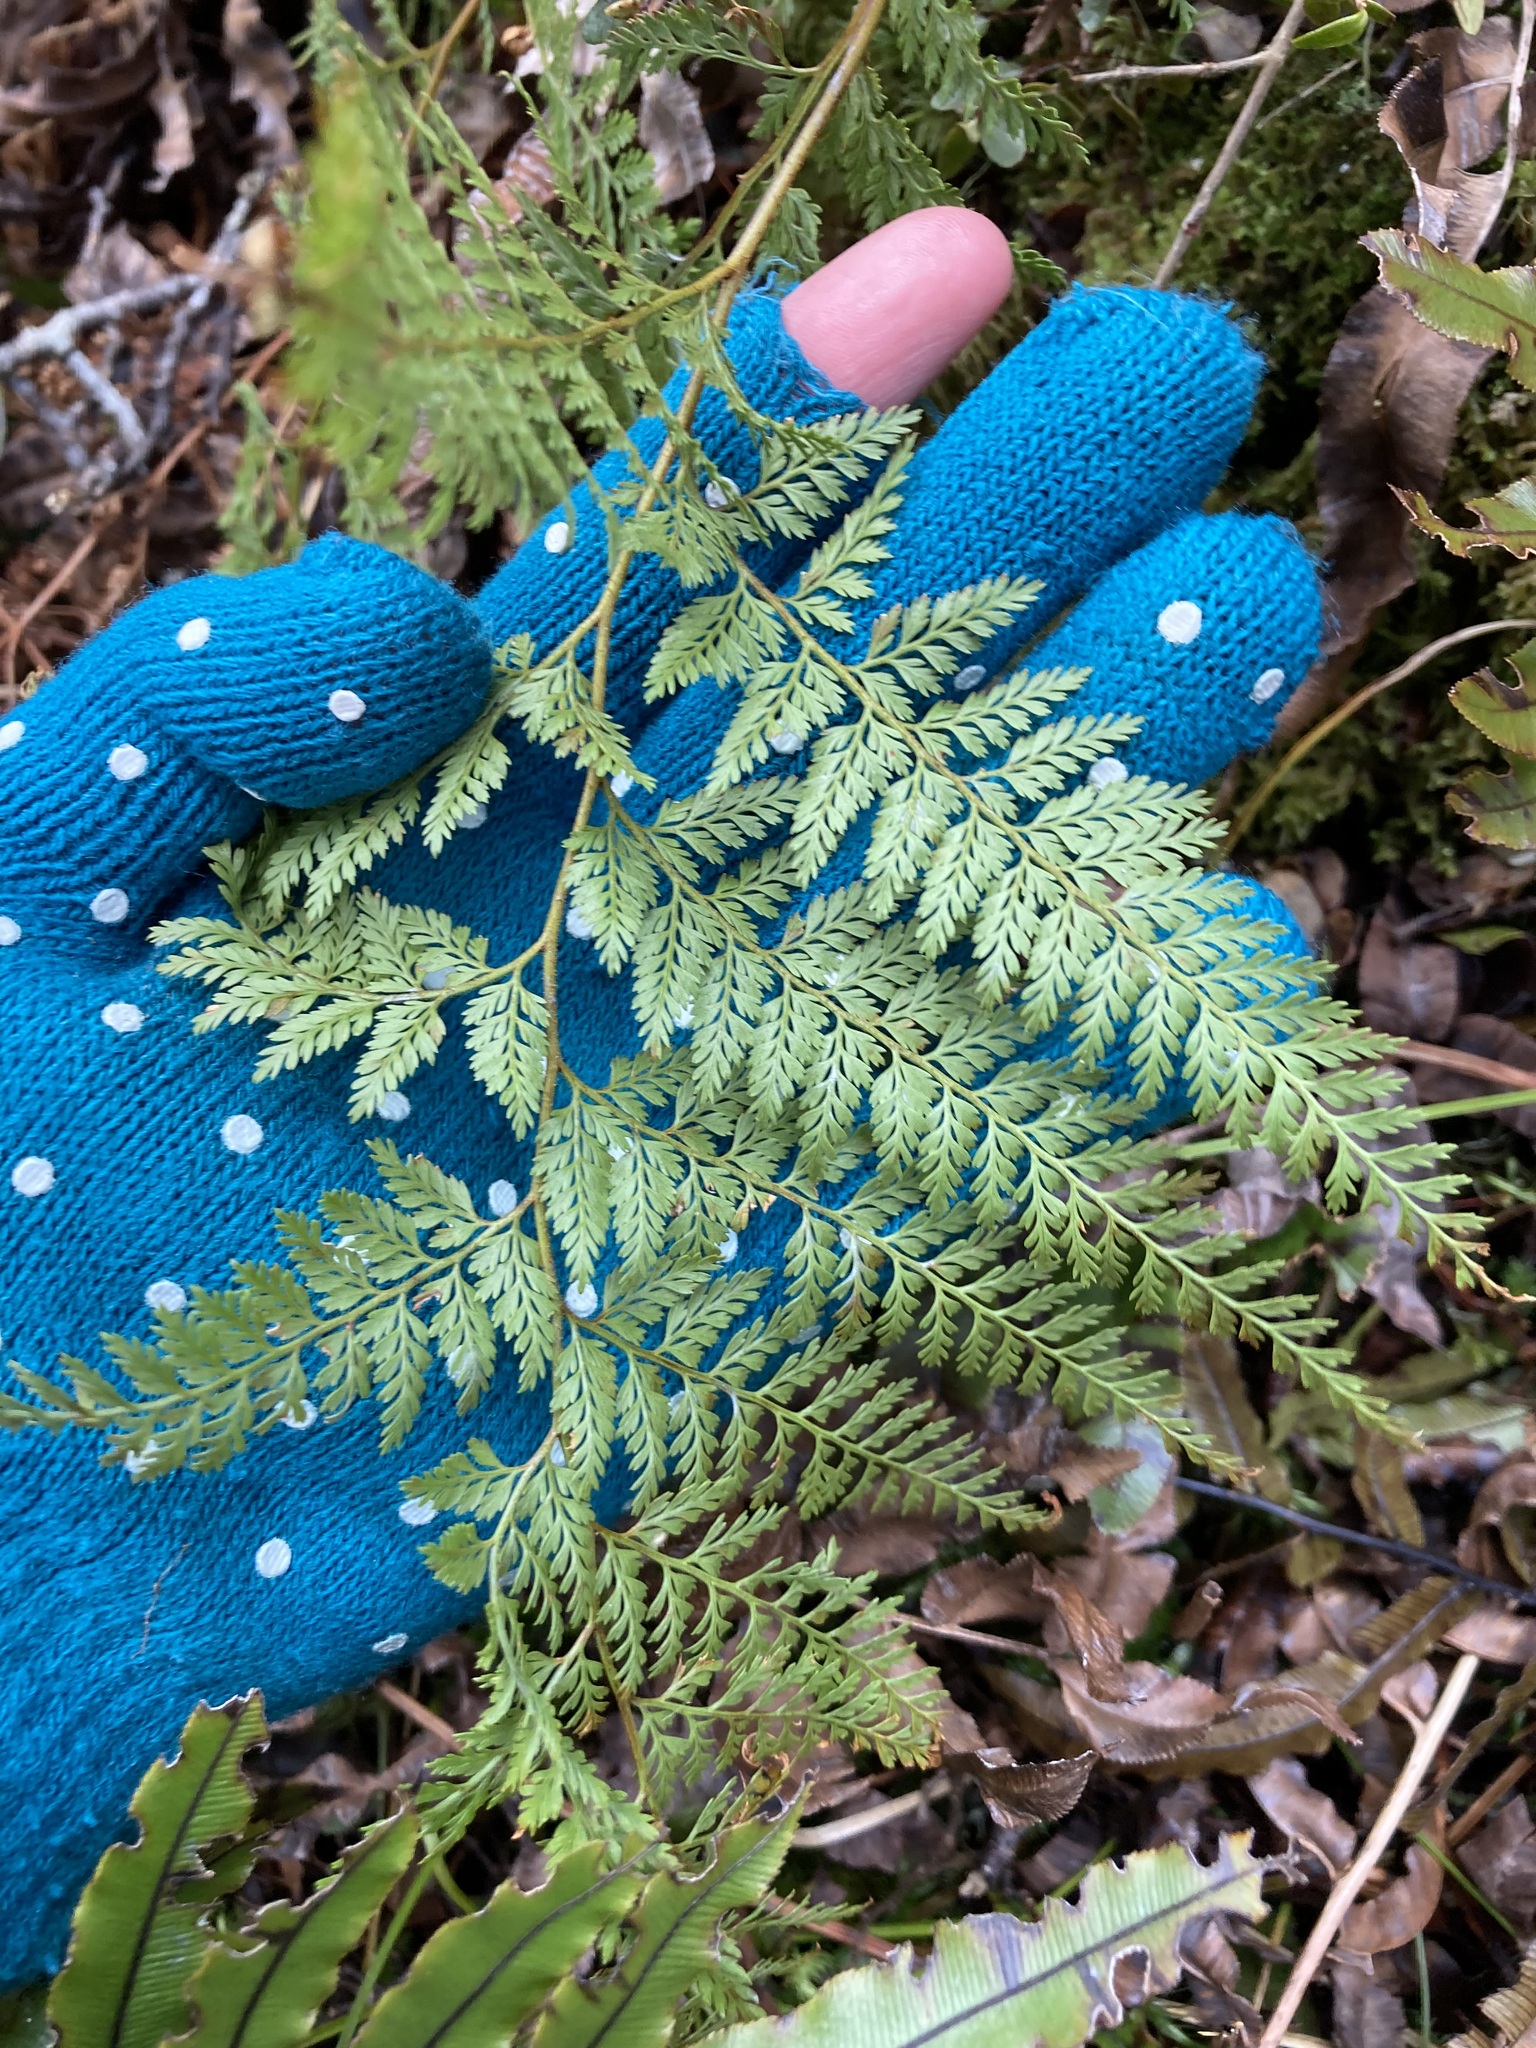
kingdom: Plantae
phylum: Tracheophyta
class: Polypodiopsida
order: Polypodiales
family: Dennstaedtiaceae
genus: Paesia
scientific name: Paesia scaberula
